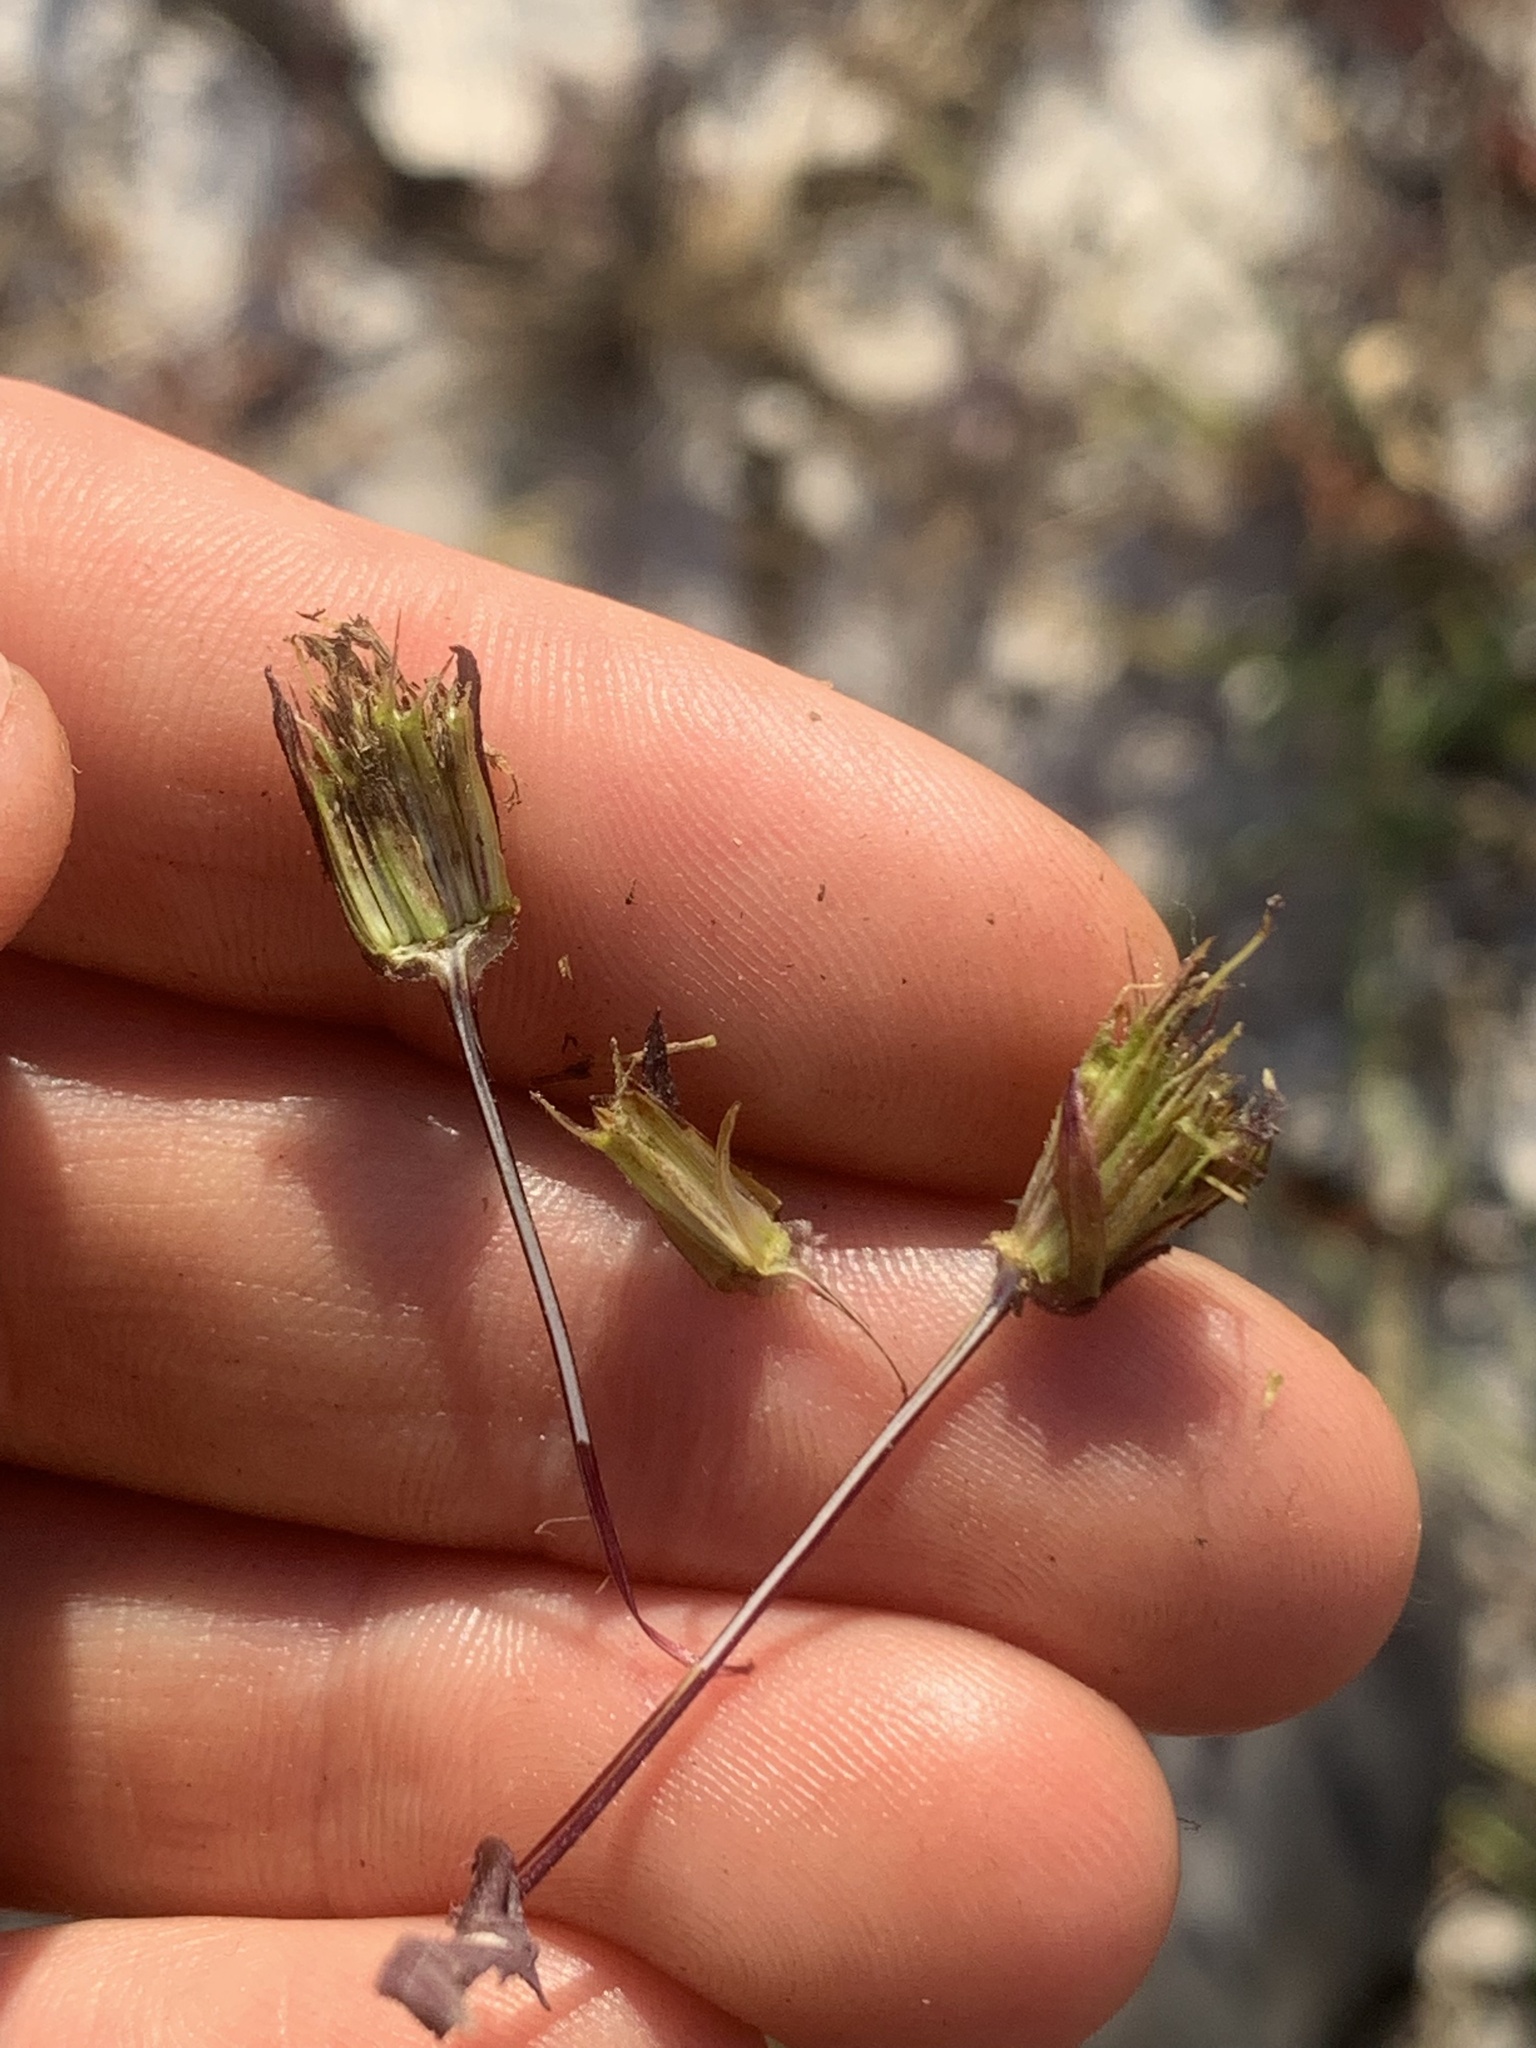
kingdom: Plantae
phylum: Tracheophyta
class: Magnoliopsida
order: Asterales
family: Asteraceae
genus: Bidens
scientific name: Bidens frondosa
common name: Beggarticks
